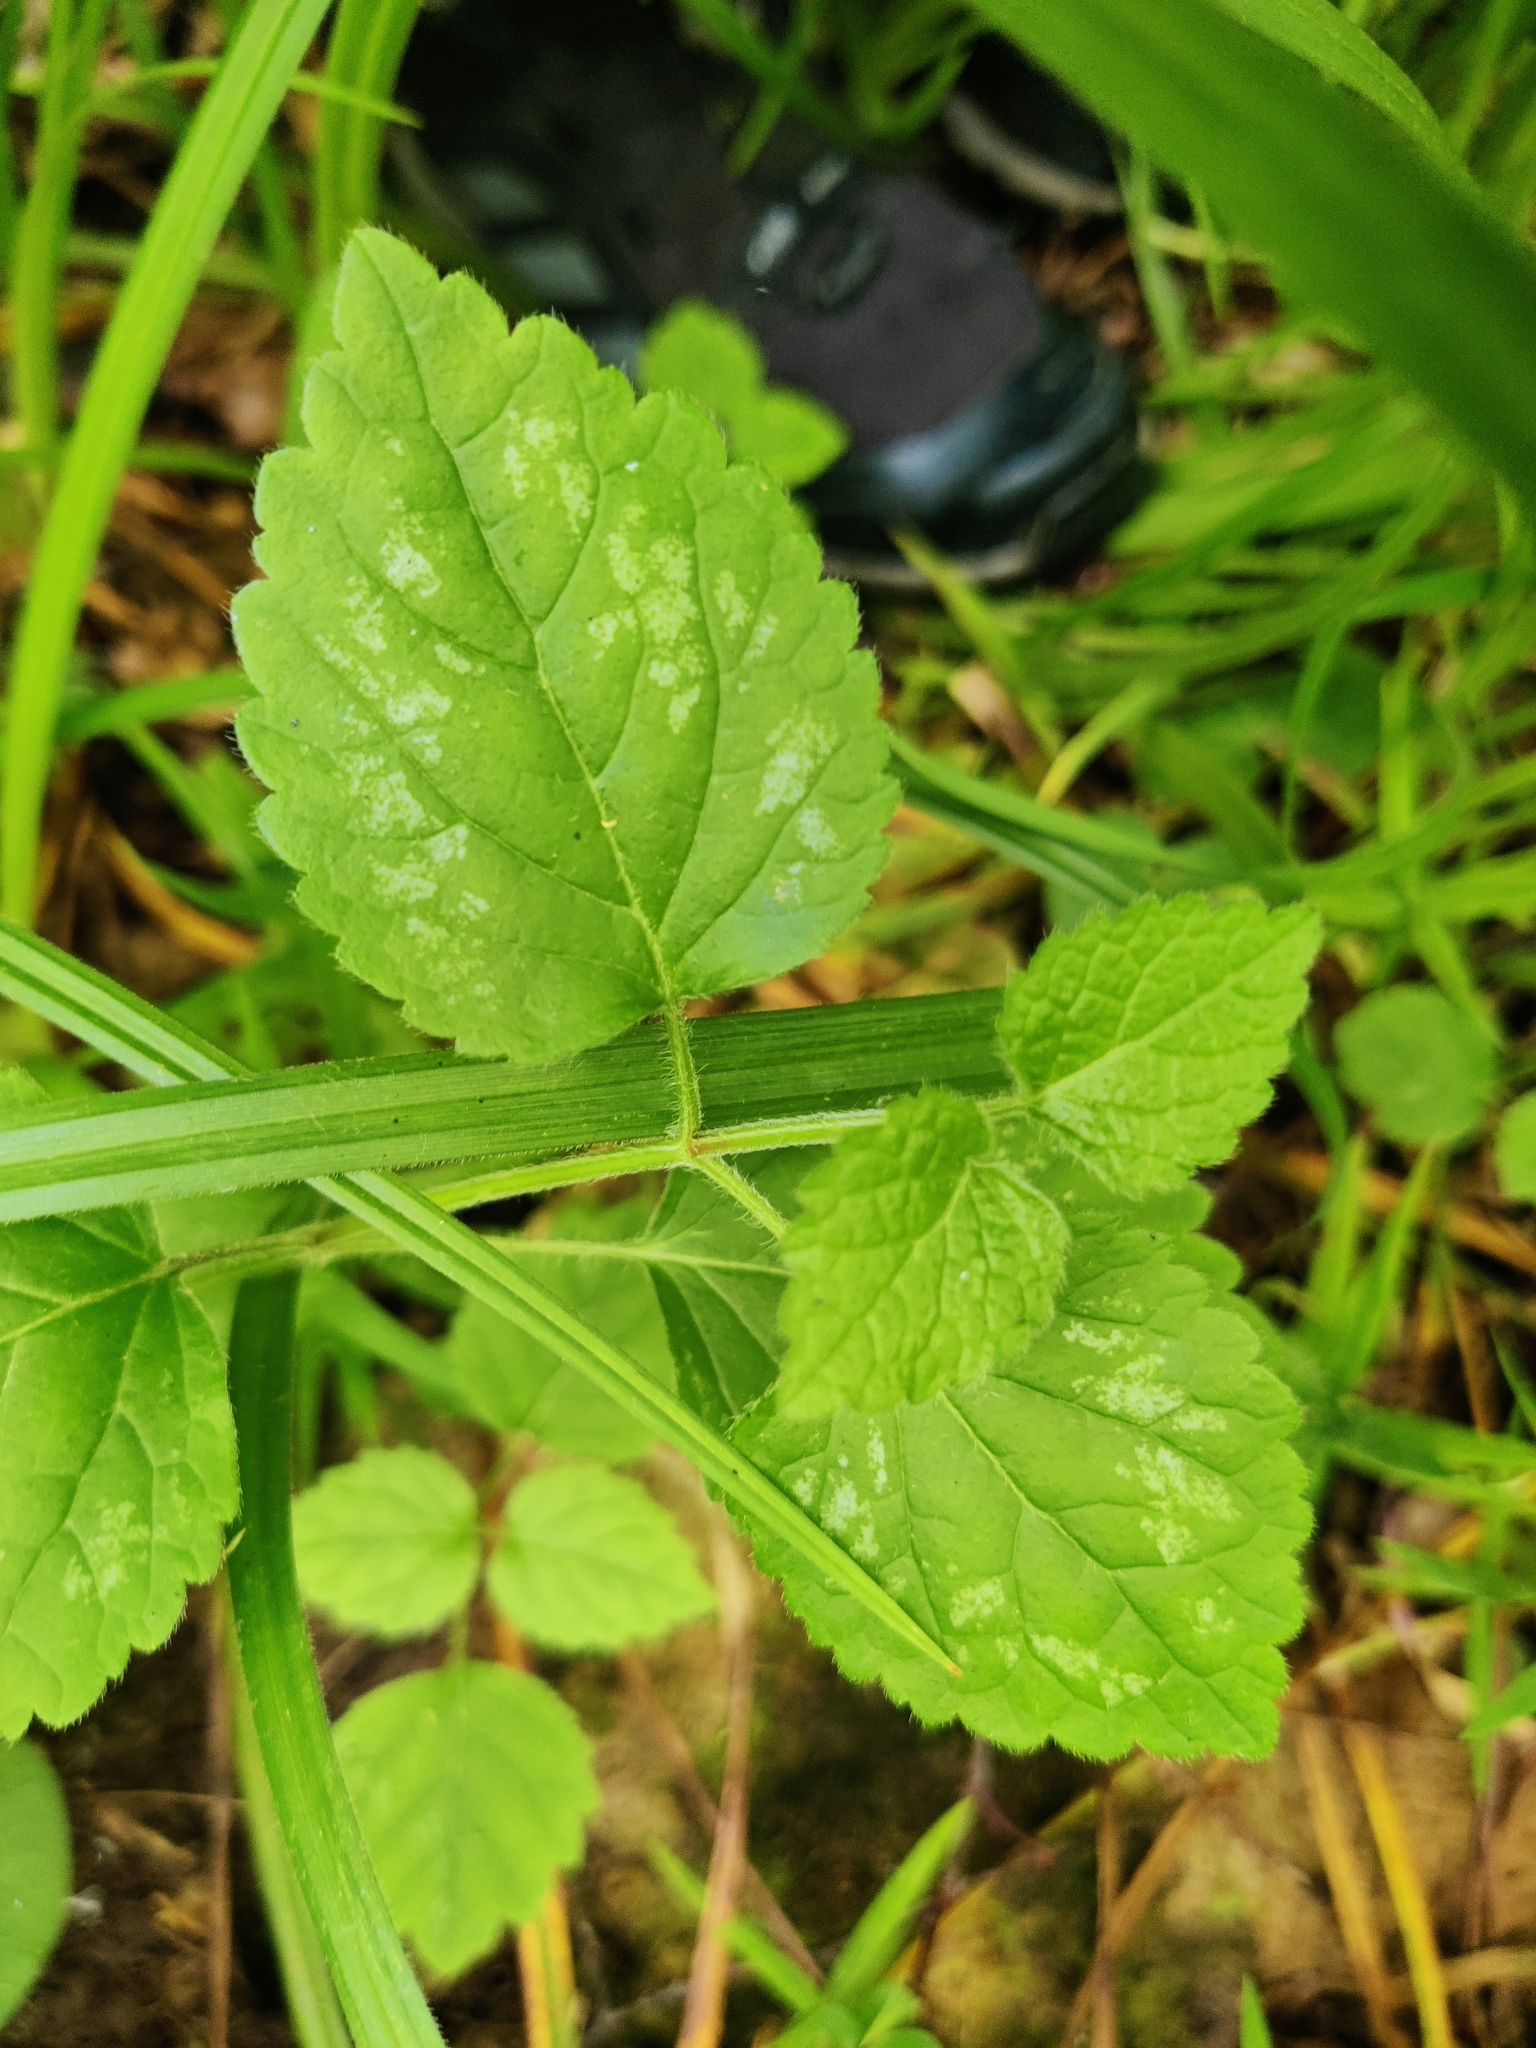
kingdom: Plantae
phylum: Tracheophyta
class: Magnoliopsida
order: Lamiales
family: Lamiaceae
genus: Lamium
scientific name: Lamium galeobdolon
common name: Yellow archangel
